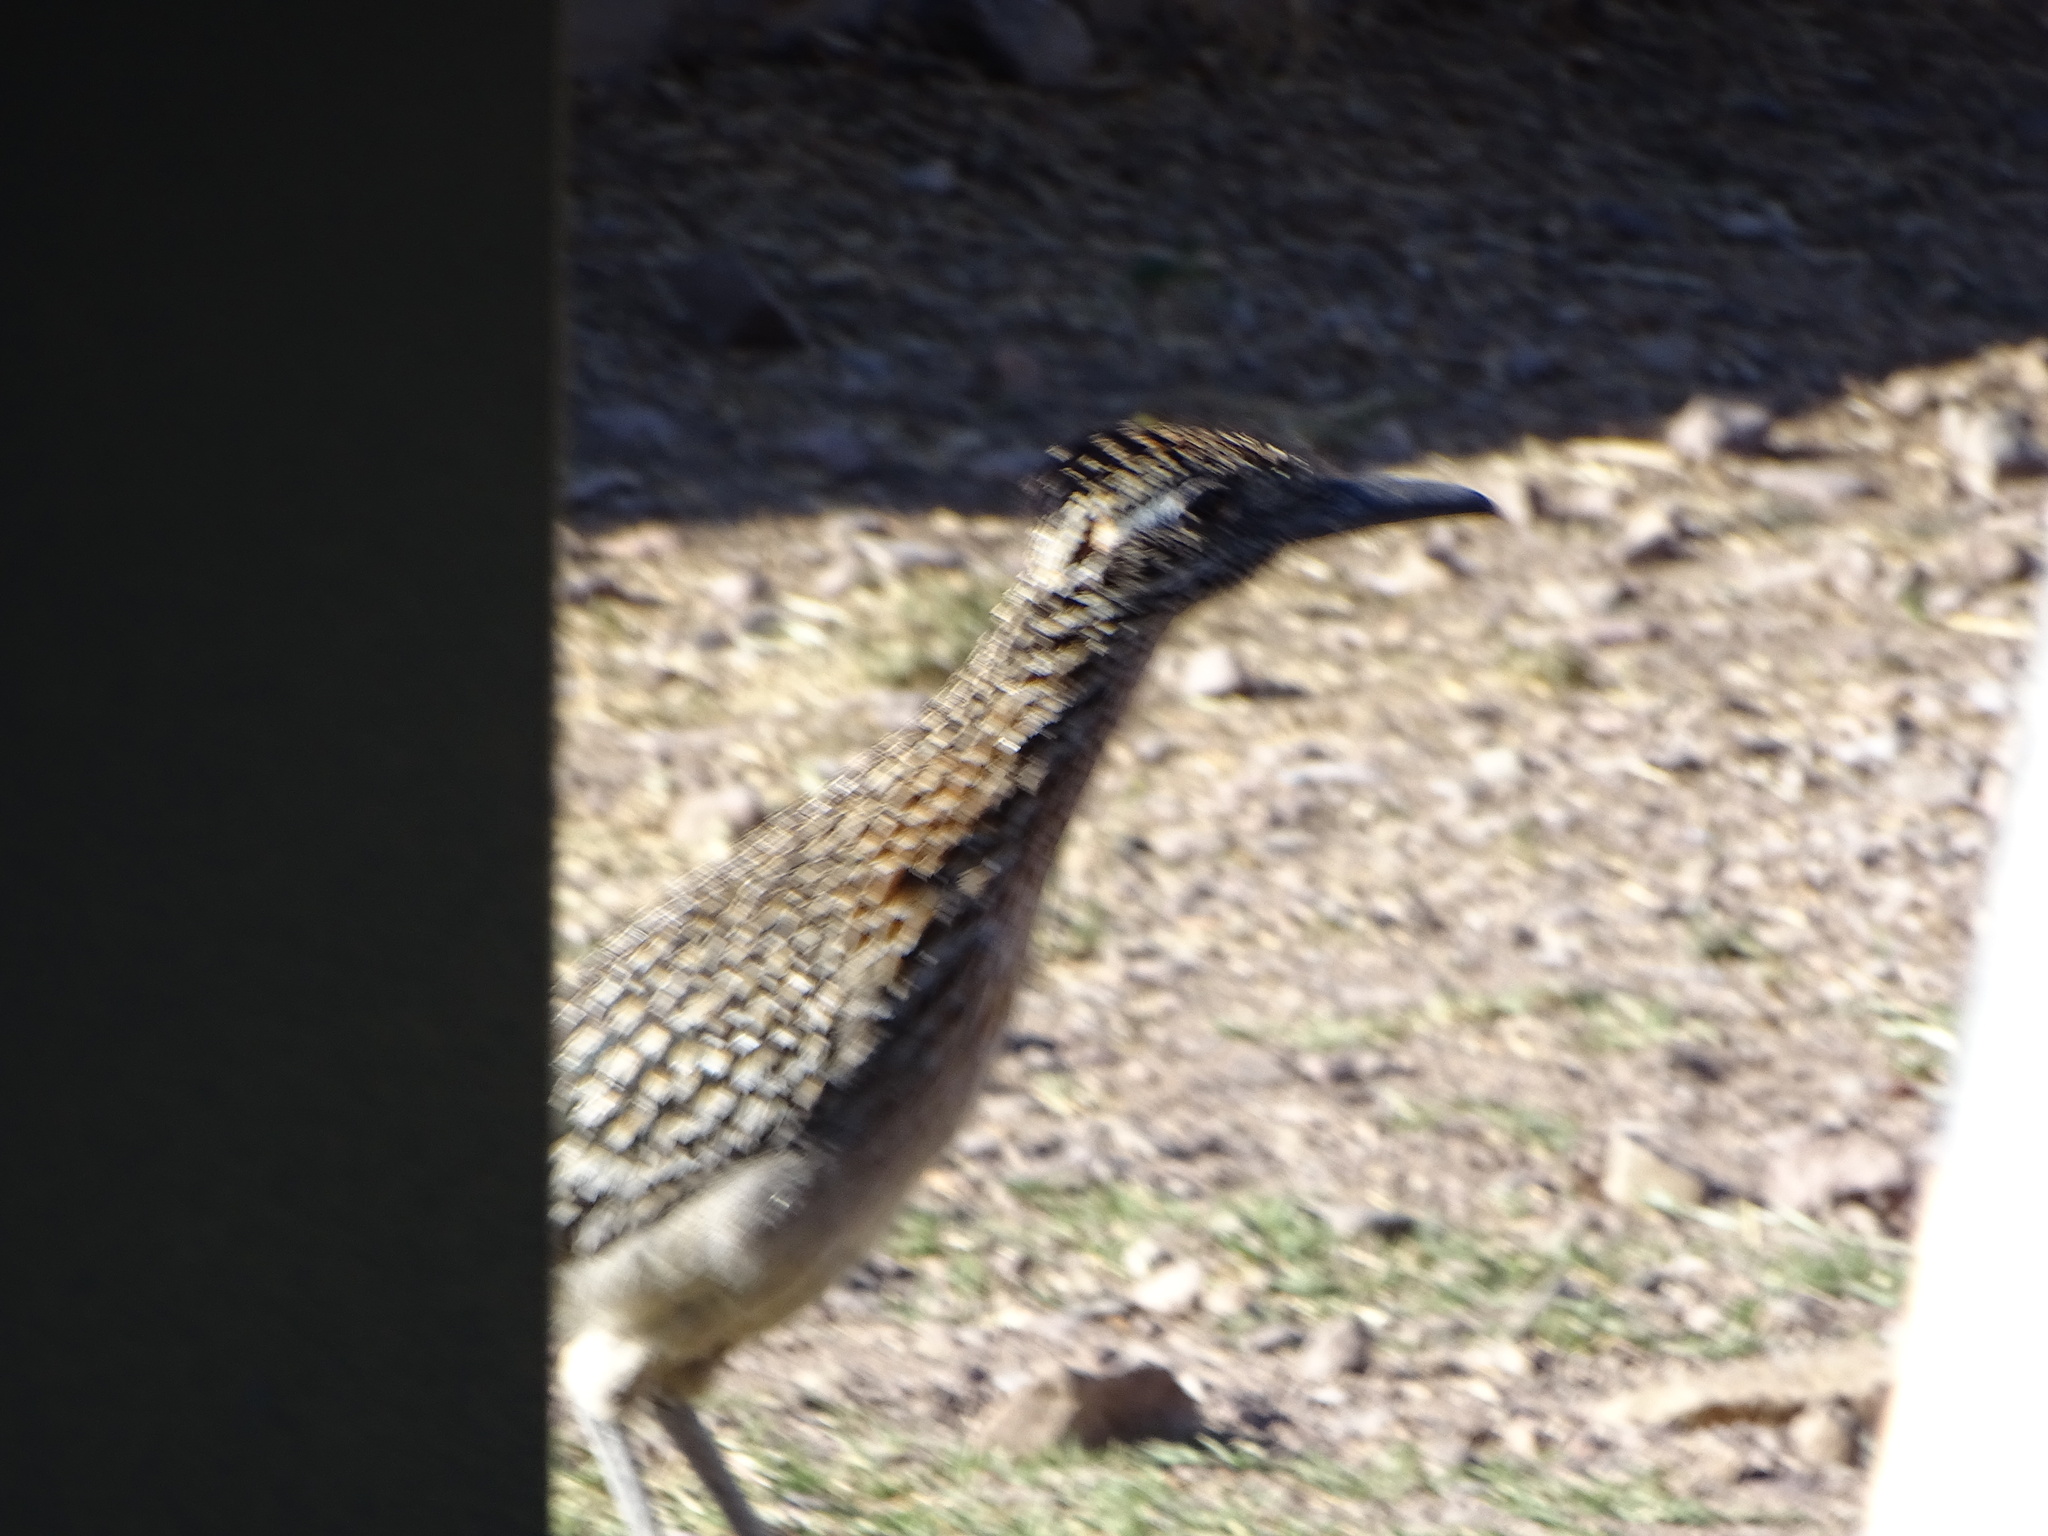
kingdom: Animalia
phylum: Chordata
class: Aves
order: Cuculiformes
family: Cuculidae
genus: Geococcyx
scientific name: Geococcyx californianus
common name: Greater roadrunner
